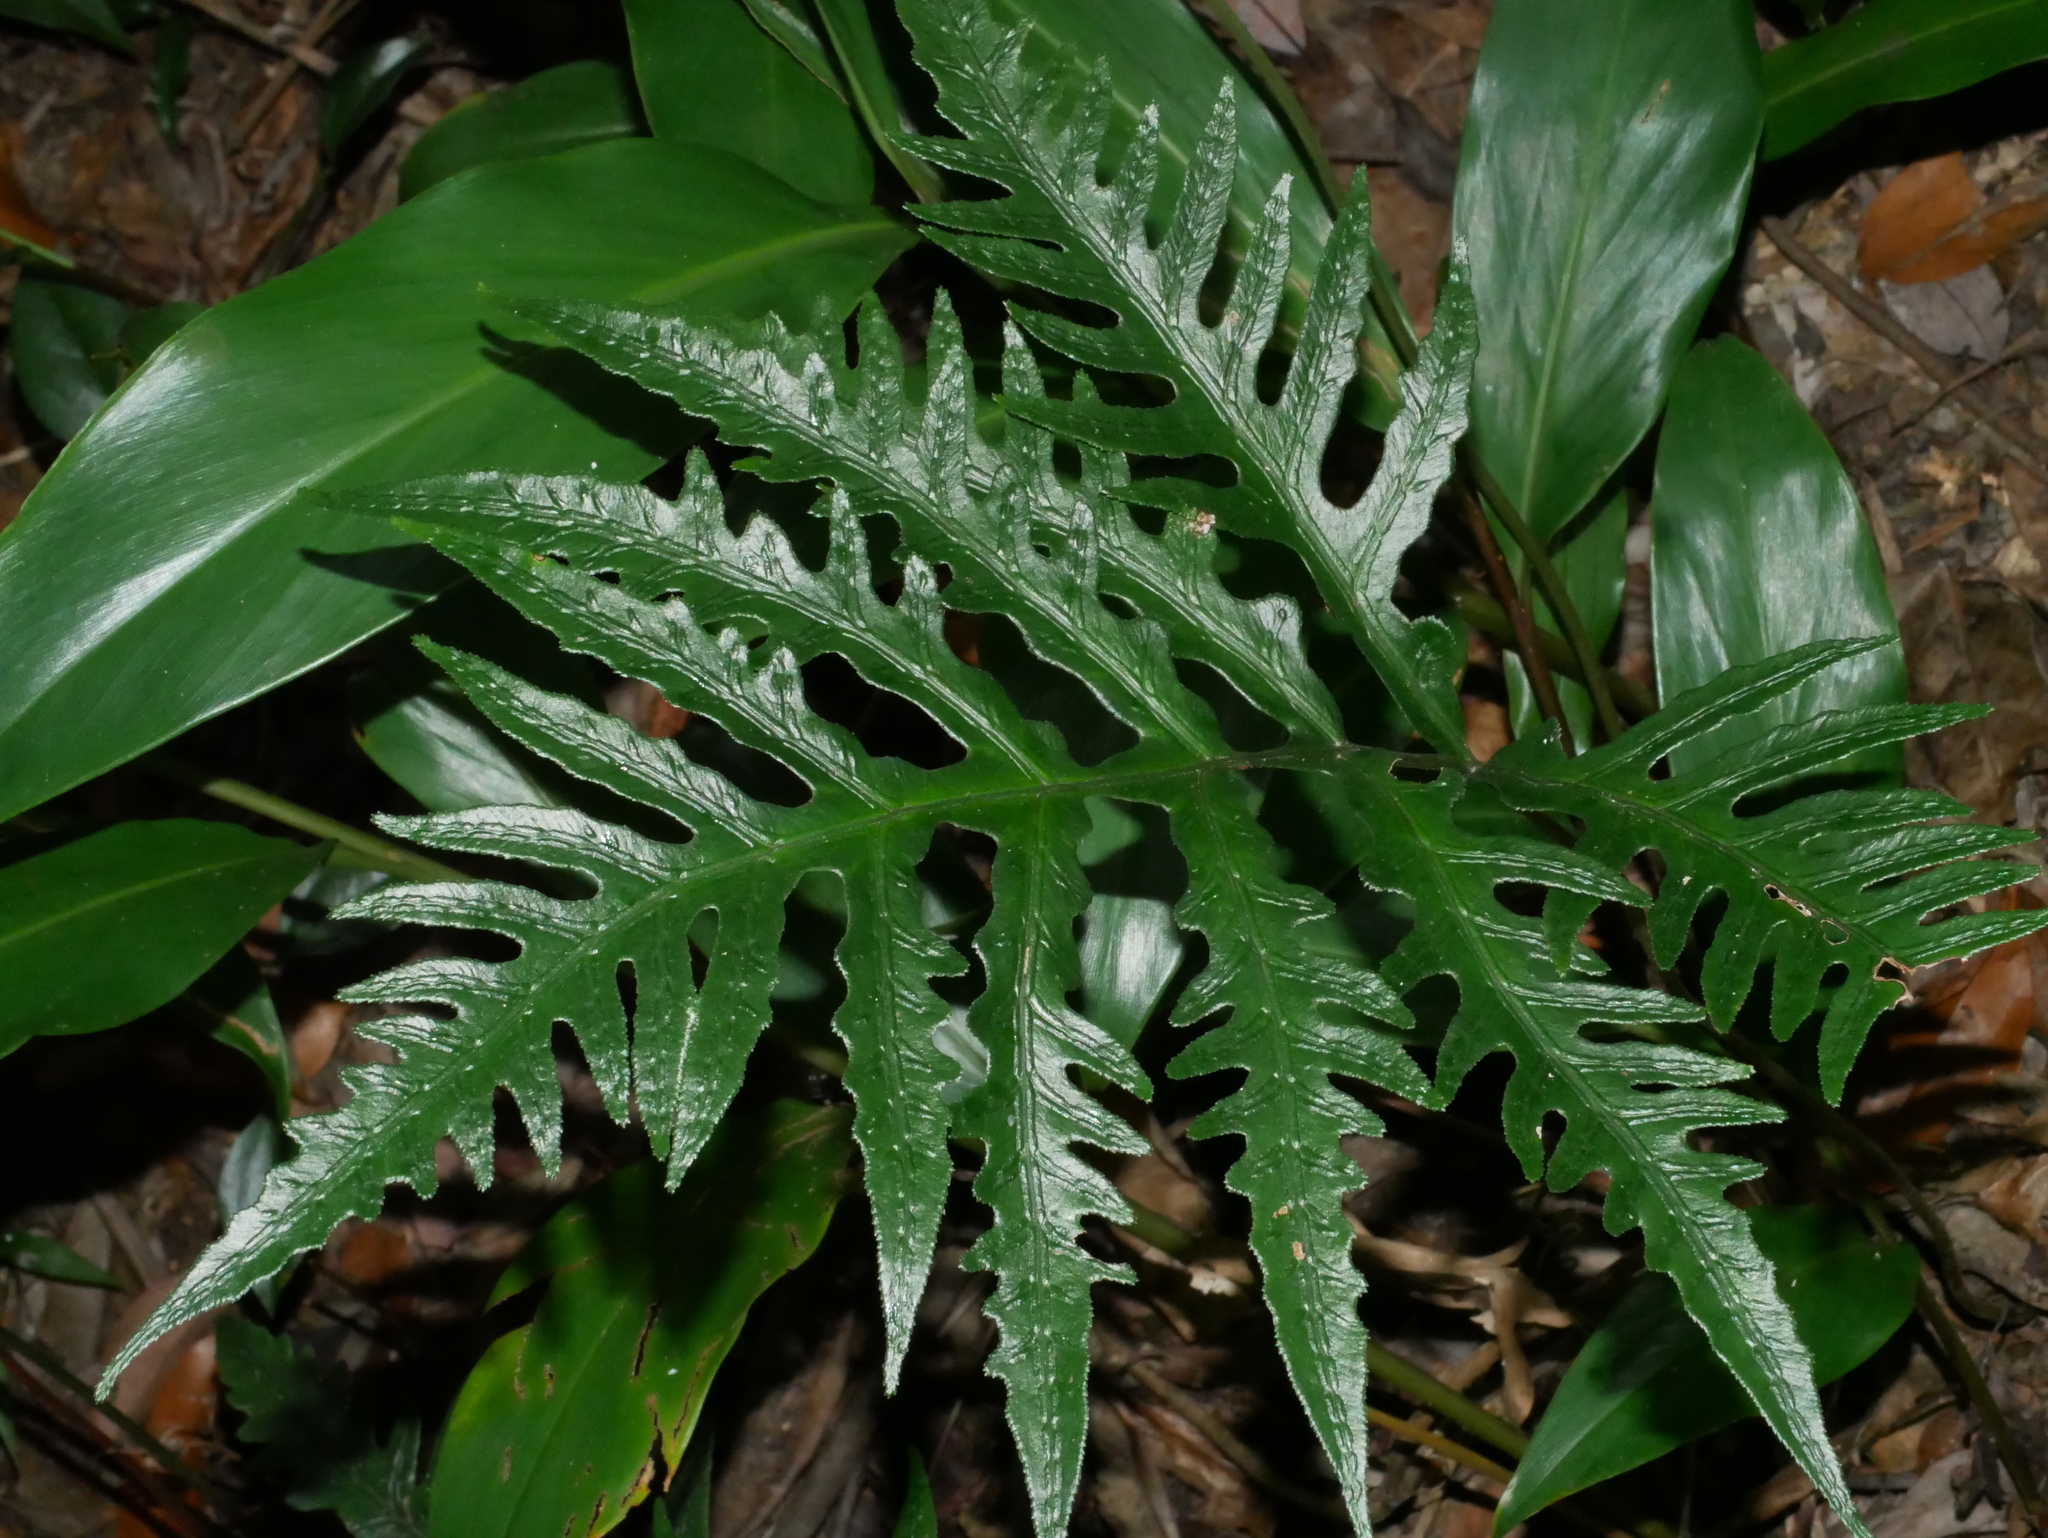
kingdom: Plantae
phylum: Tracheophyta
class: Polypodiopsida
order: Polypodiales
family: Blechnaceae
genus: Woodwardia
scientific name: Woodwardia kempii
